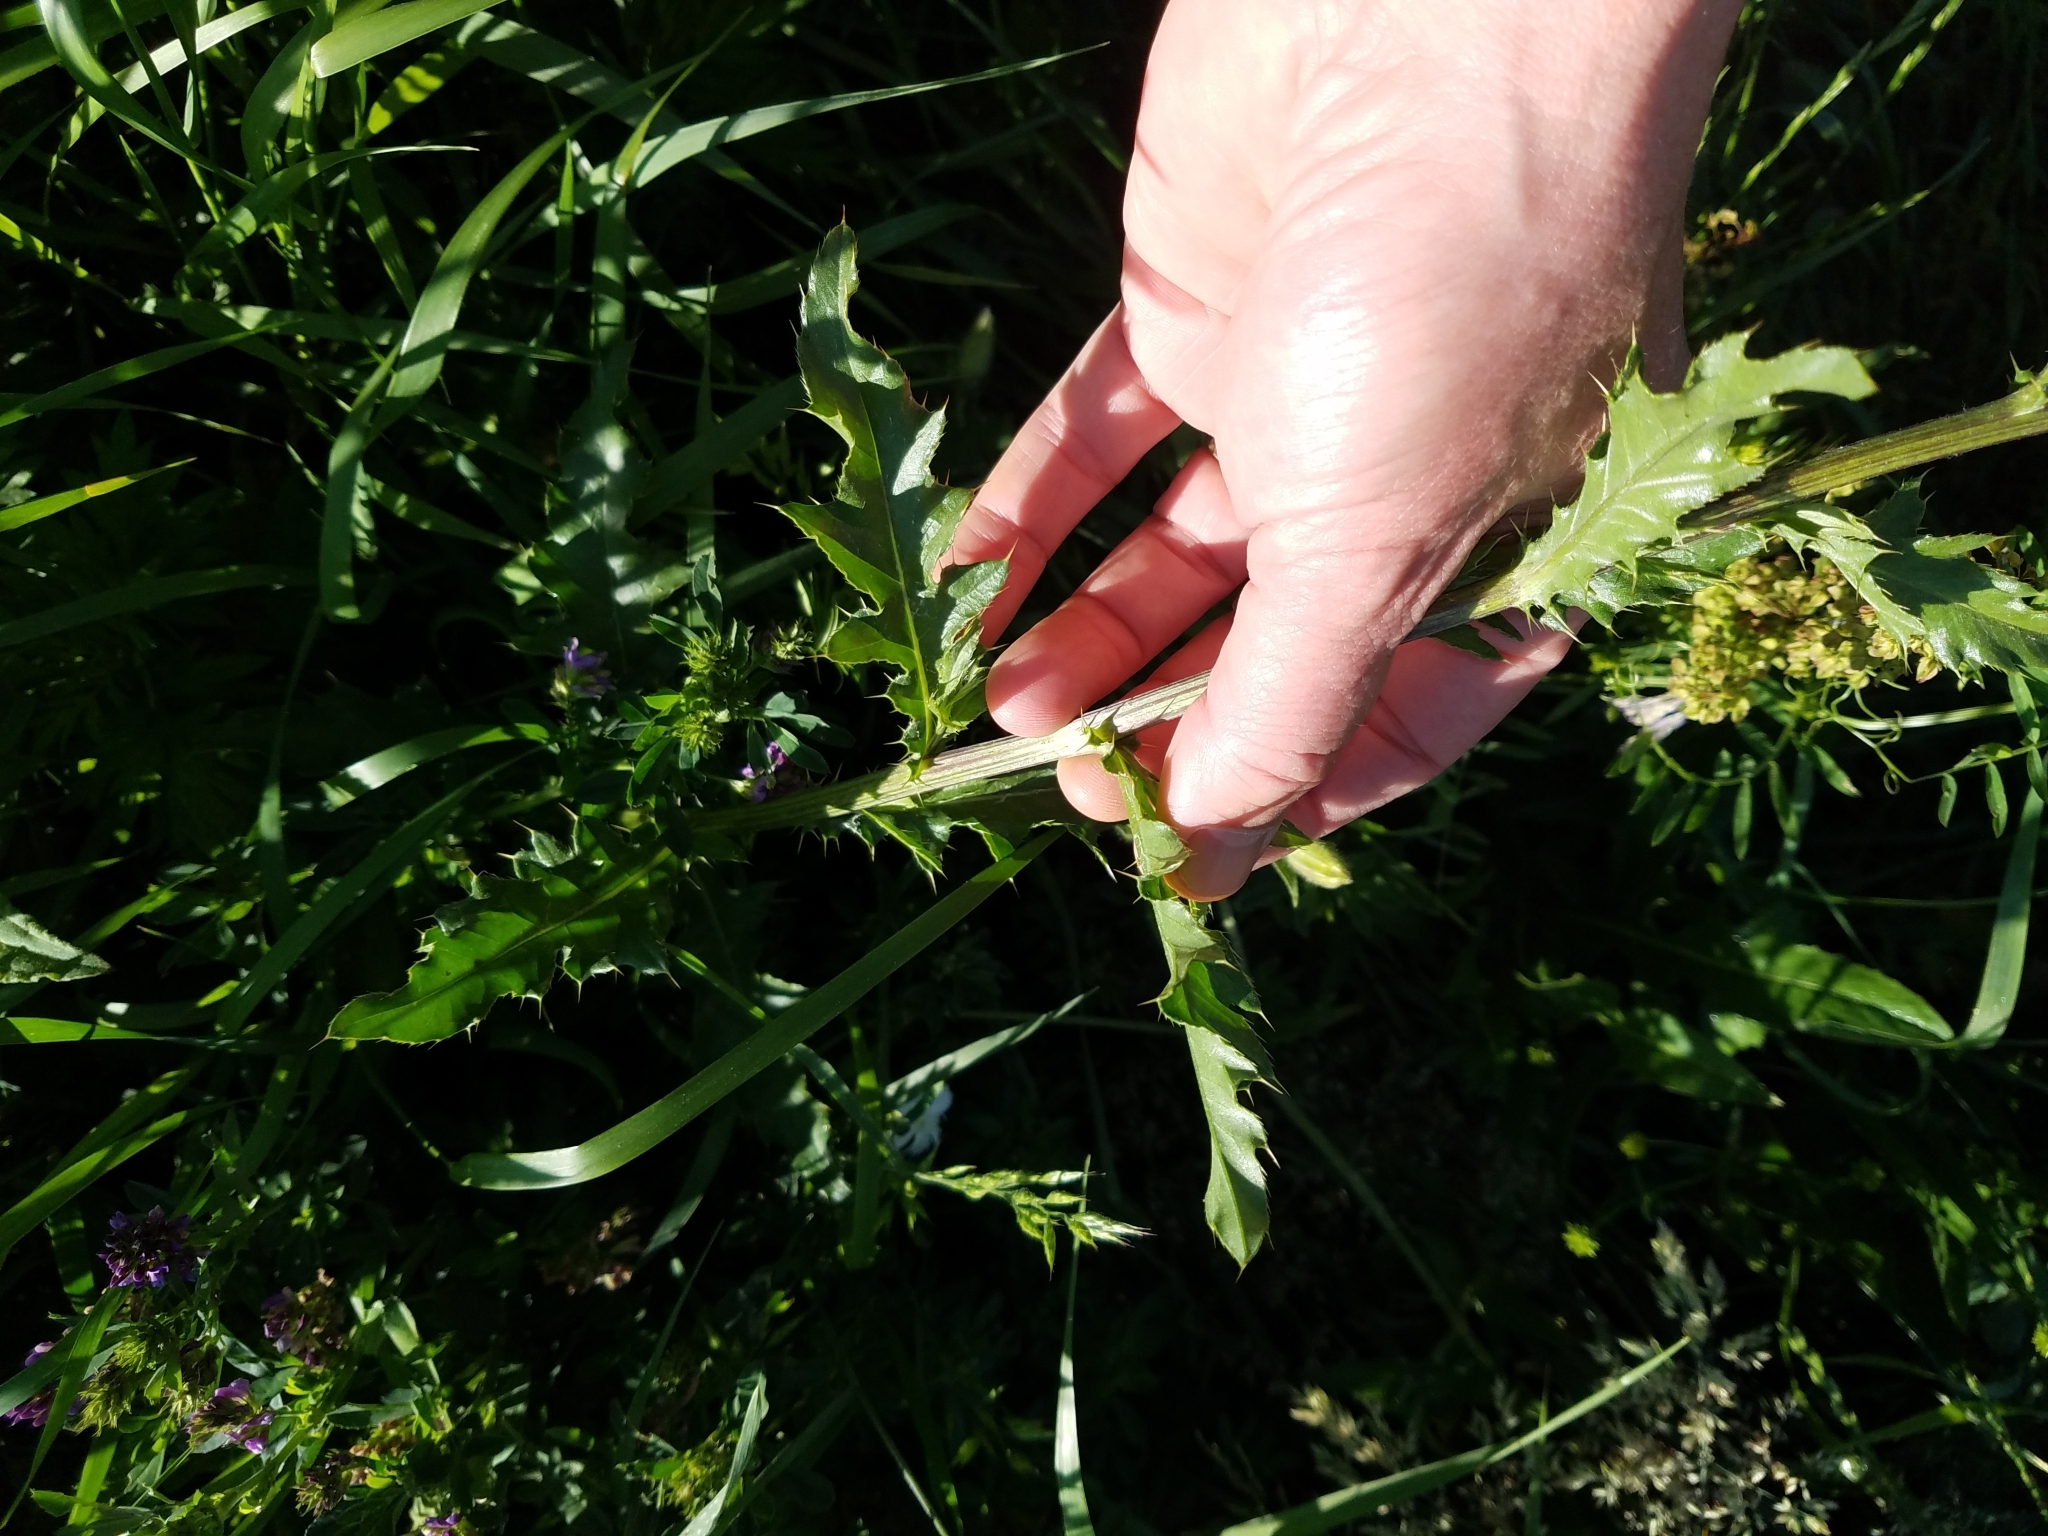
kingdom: Plantae
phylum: Tracheophyta
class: Magnoliopsida
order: Asterales
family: Asteraceae
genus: Cirsium
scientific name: Cirsium arvense
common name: Creeping thistle
